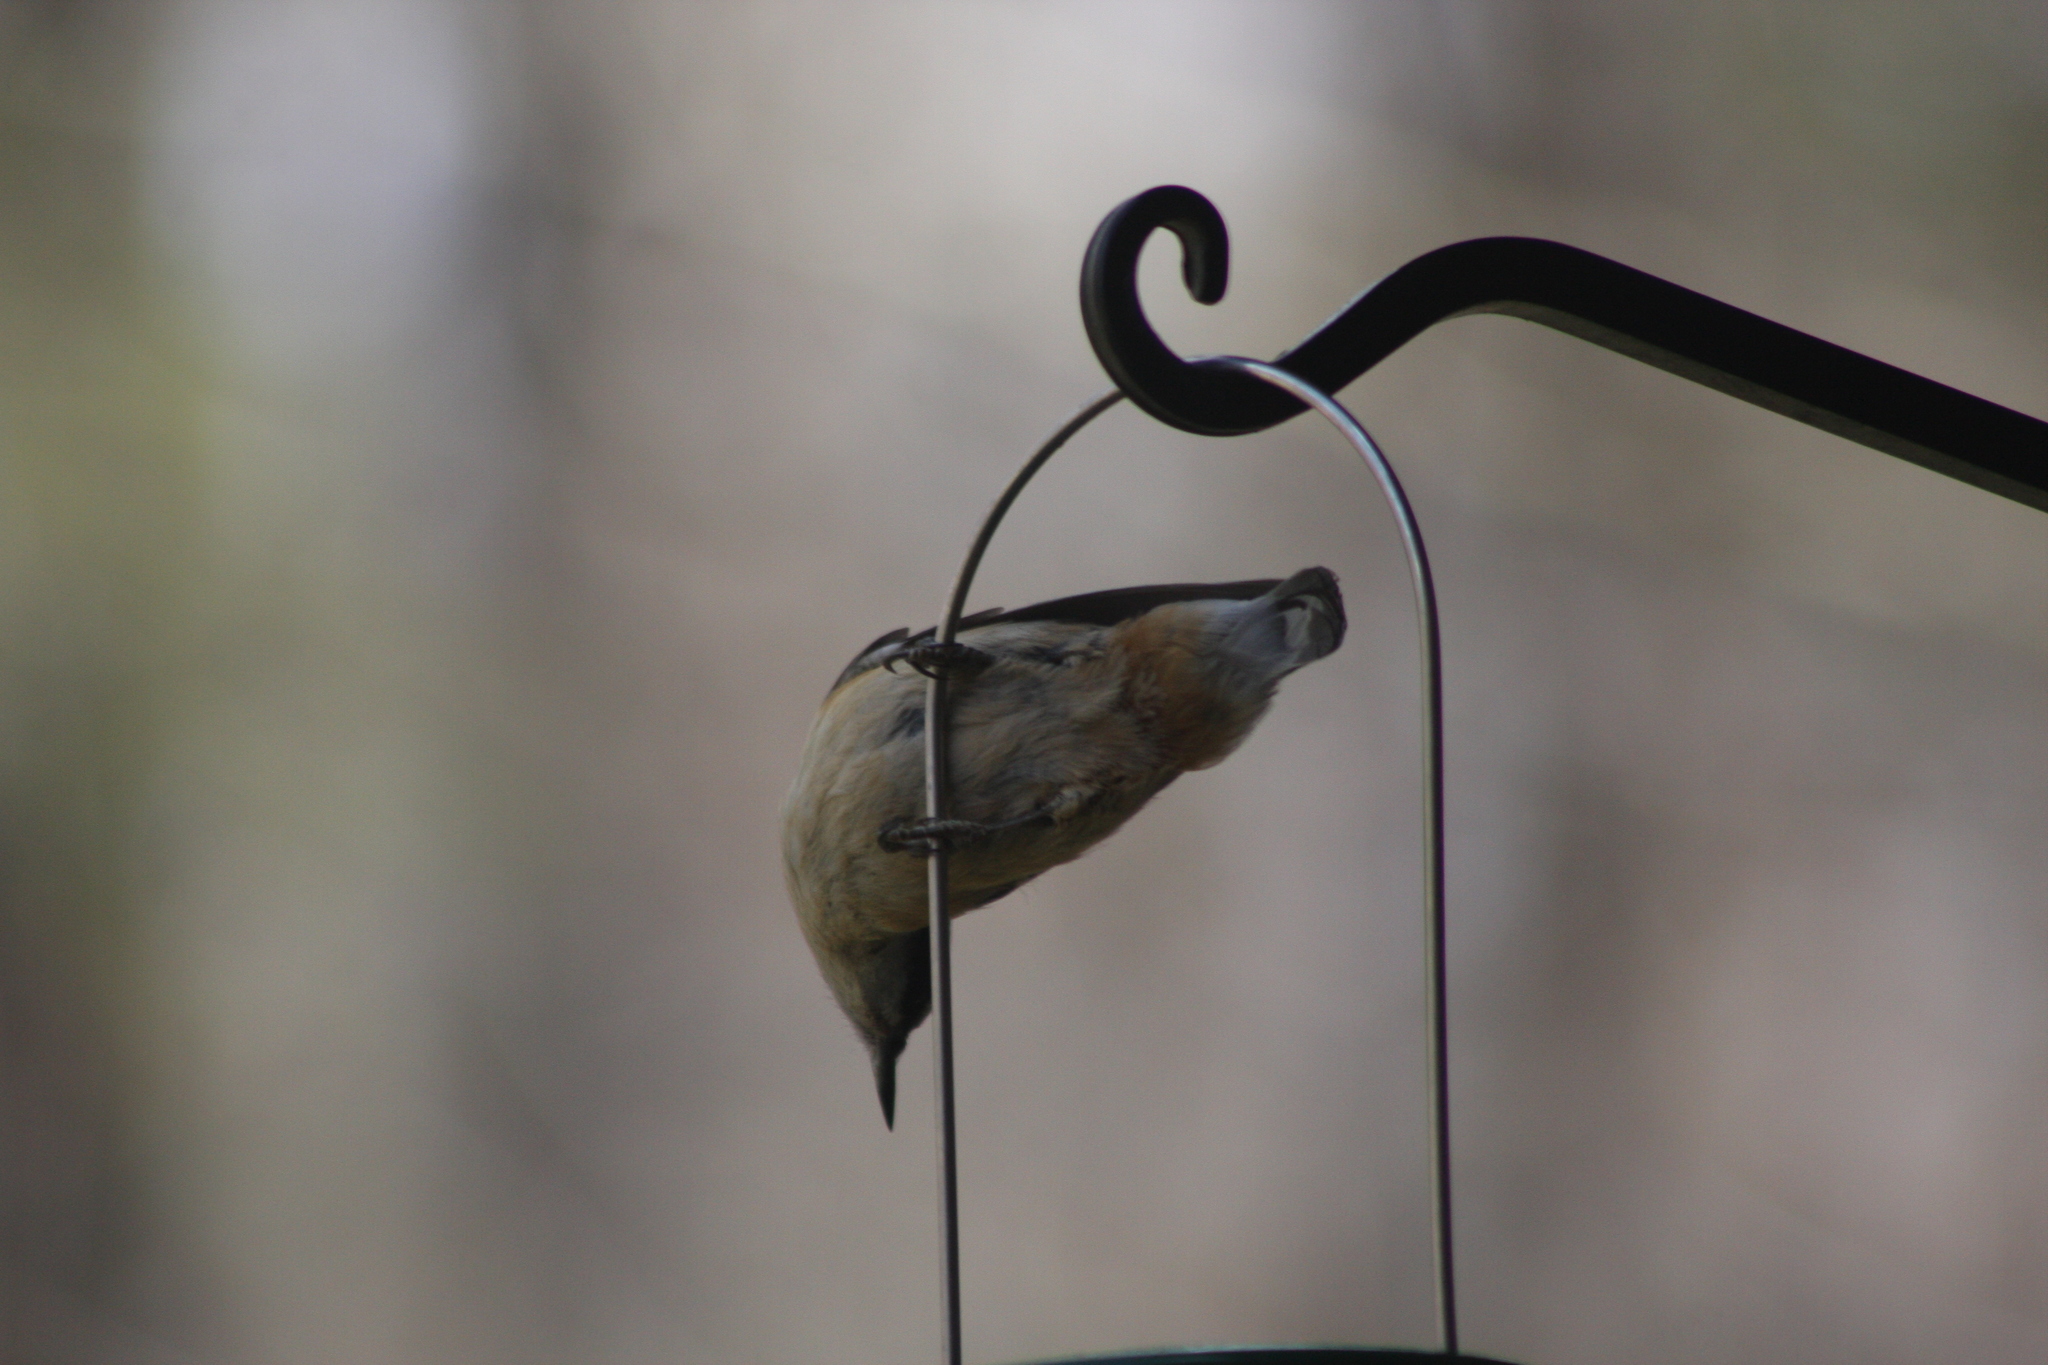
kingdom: Animalia
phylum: Chordata
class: Aves
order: Passeriformes
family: Sittidae
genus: Sitta
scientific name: Sitta canadensis
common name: Red-breasted nuthatch
